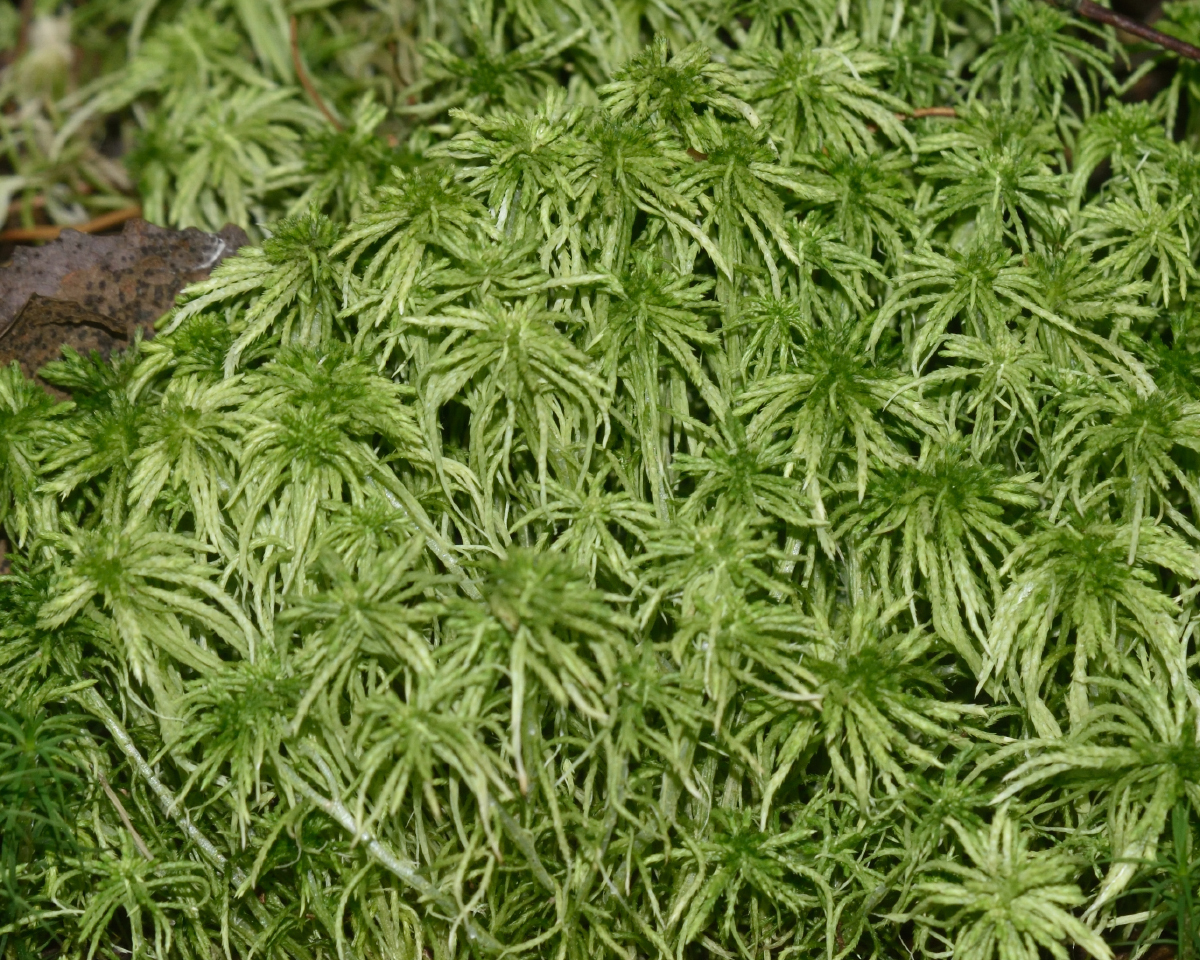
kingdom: Plantae
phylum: Bryophyta
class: Sphagnopsida
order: Sphagnales
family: Sphagnaceae
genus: Sphagnum
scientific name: Sphagnum girgensohnii
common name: Girgensohn's peat moss
